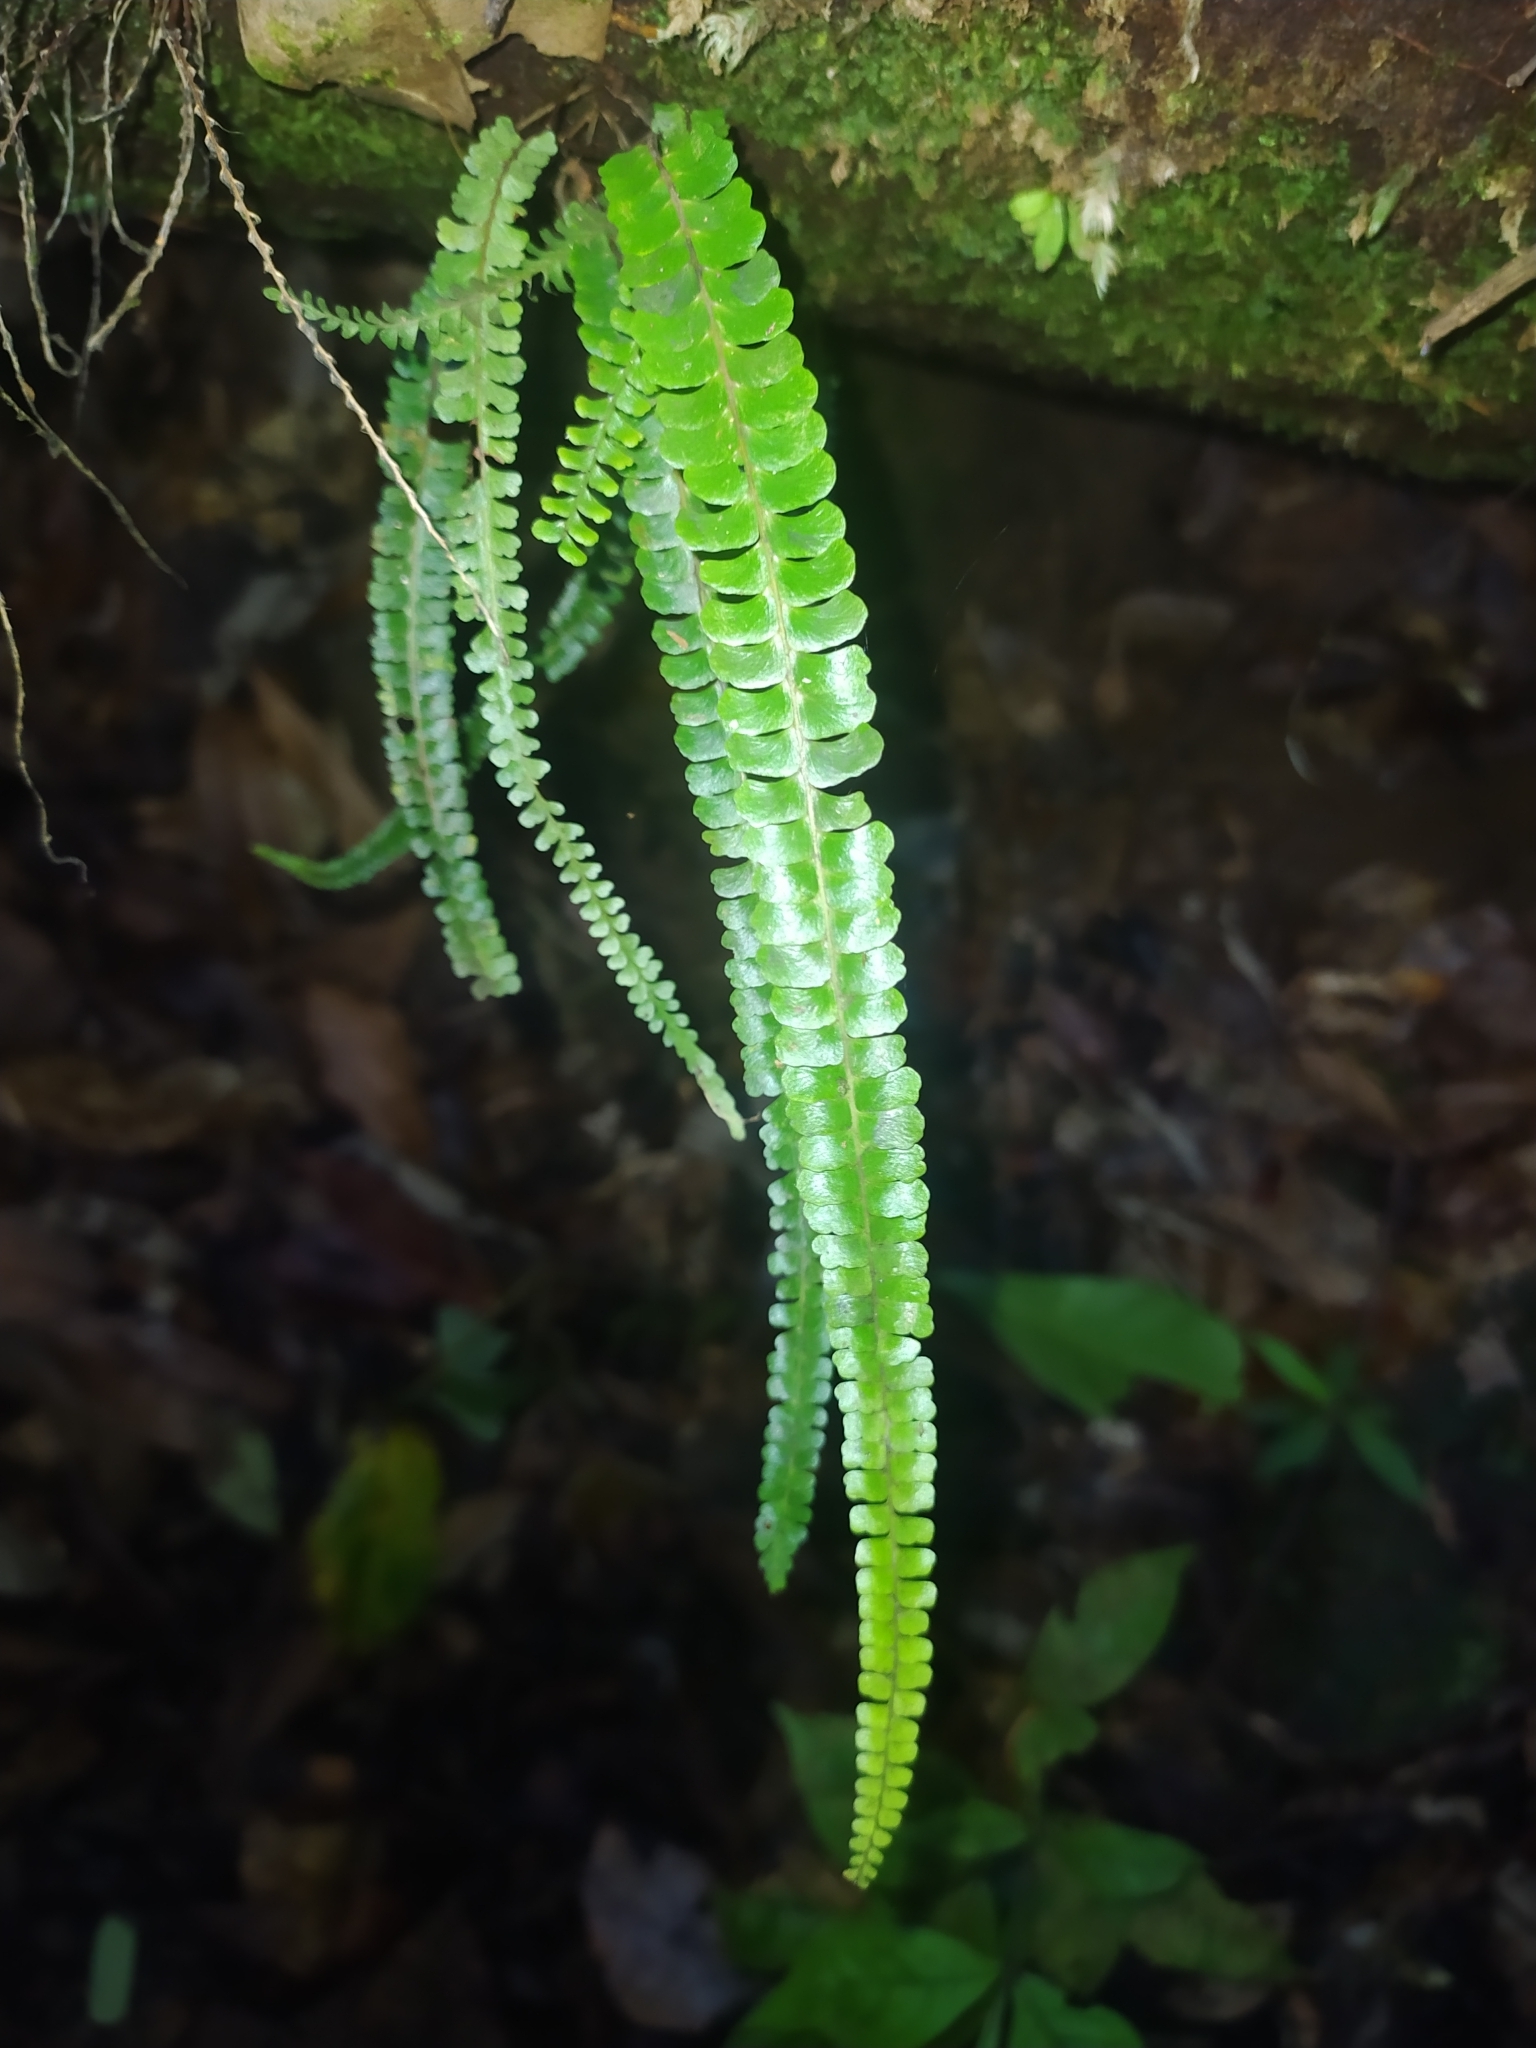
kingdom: Plantae
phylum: Tracheophyta
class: Polypodiopsida
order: Polypodiales
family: Lindsaeaceae
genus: Lindsaea
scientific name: Lindsaea guianensis
